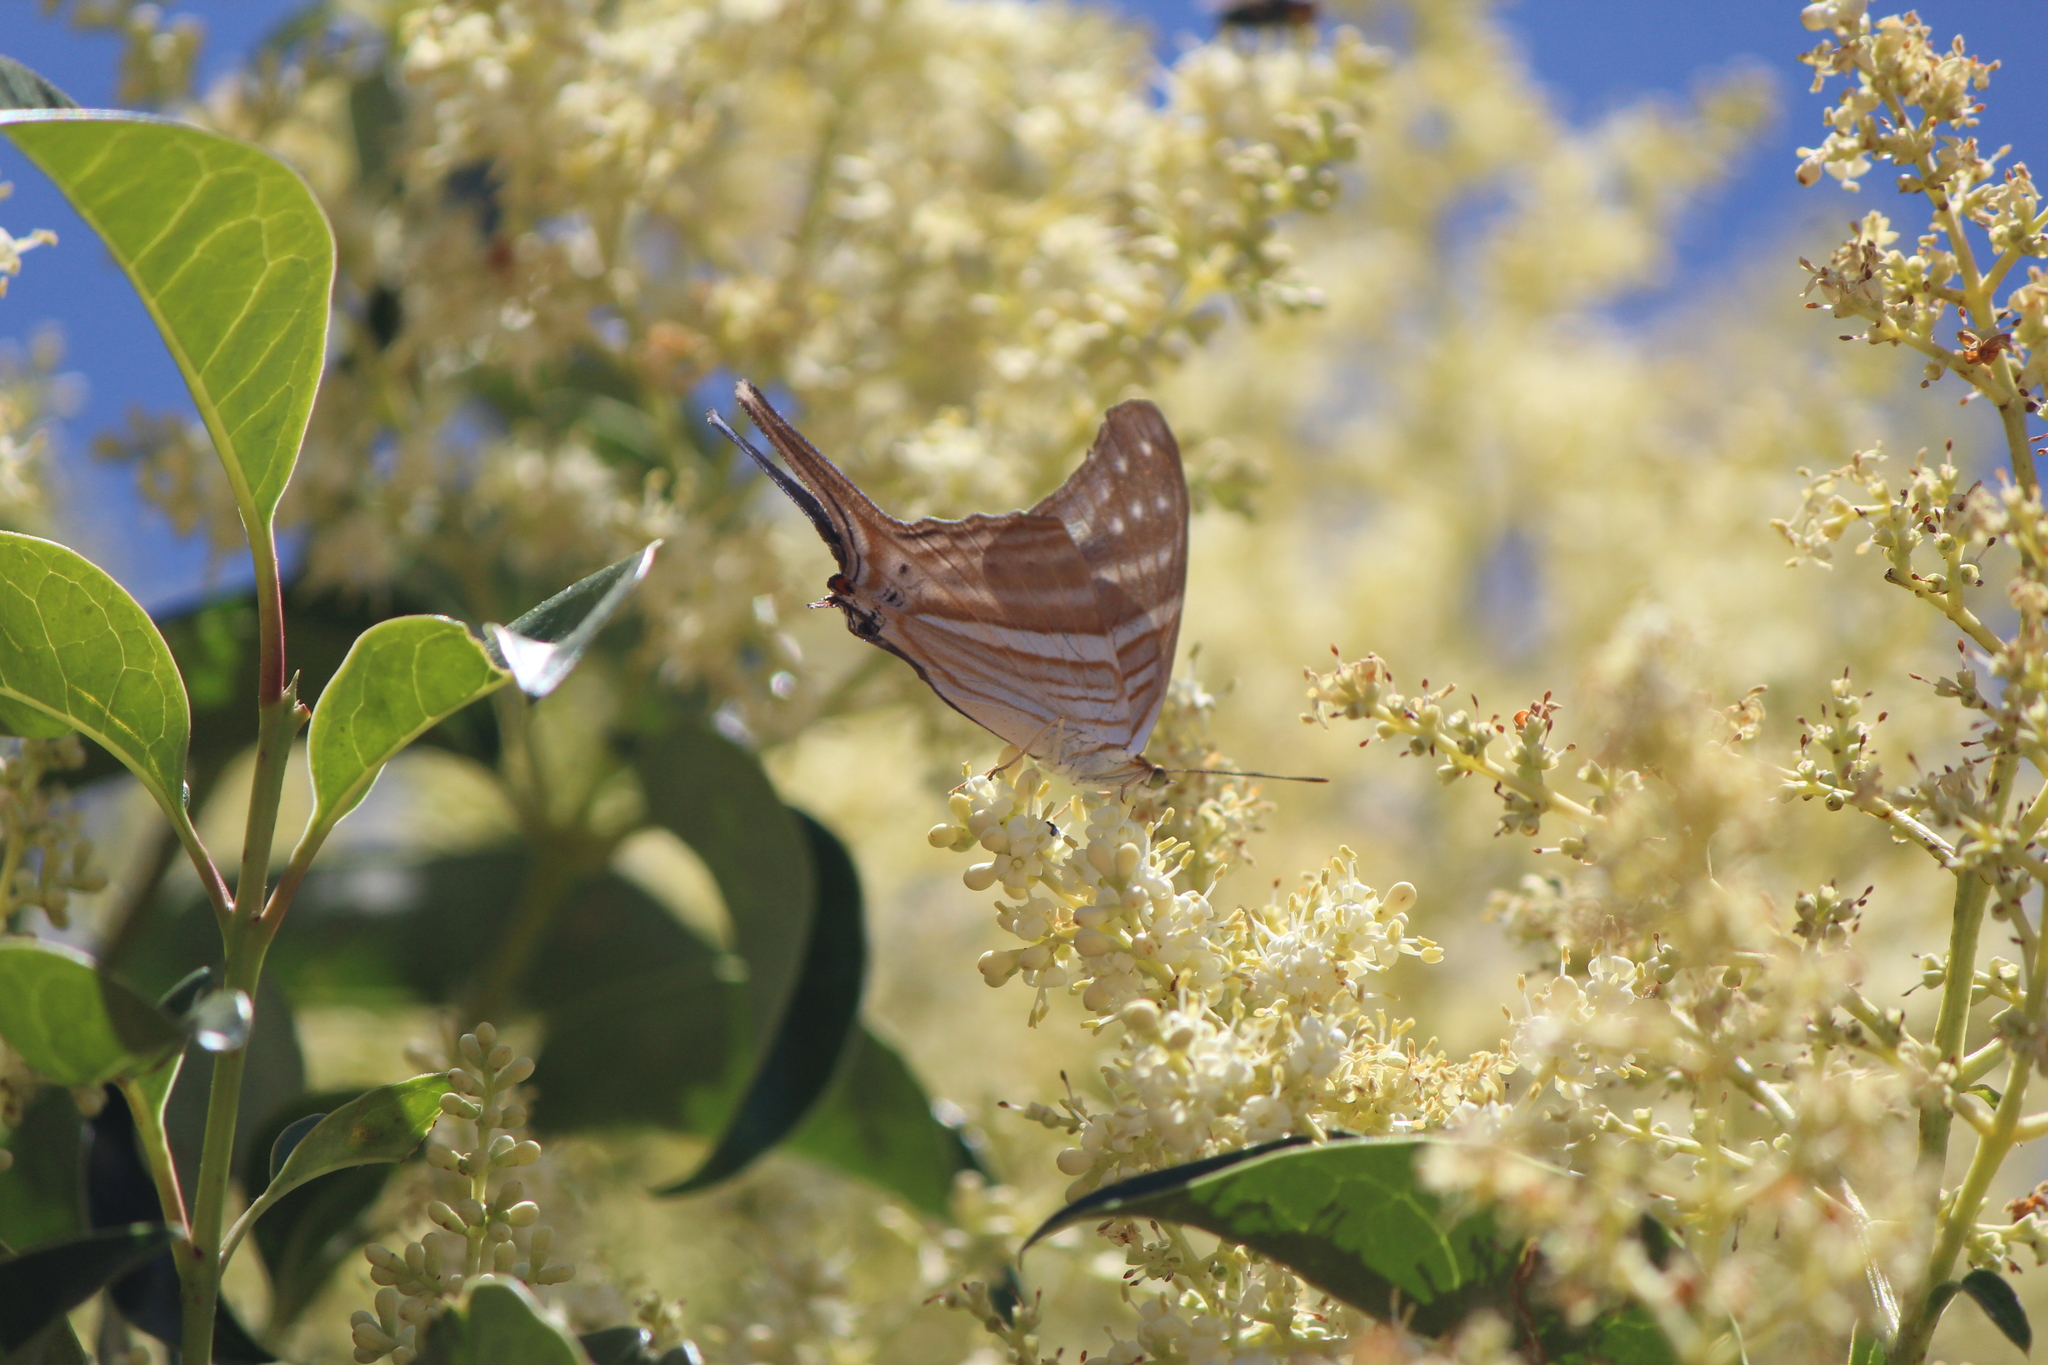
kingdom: Animalia
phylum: Arthropoda
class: Insecta
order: Lepidoptera
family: Nymphalidae
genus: Marpesia
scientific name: Marpesia chiron
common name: Many-banded daggerwing
